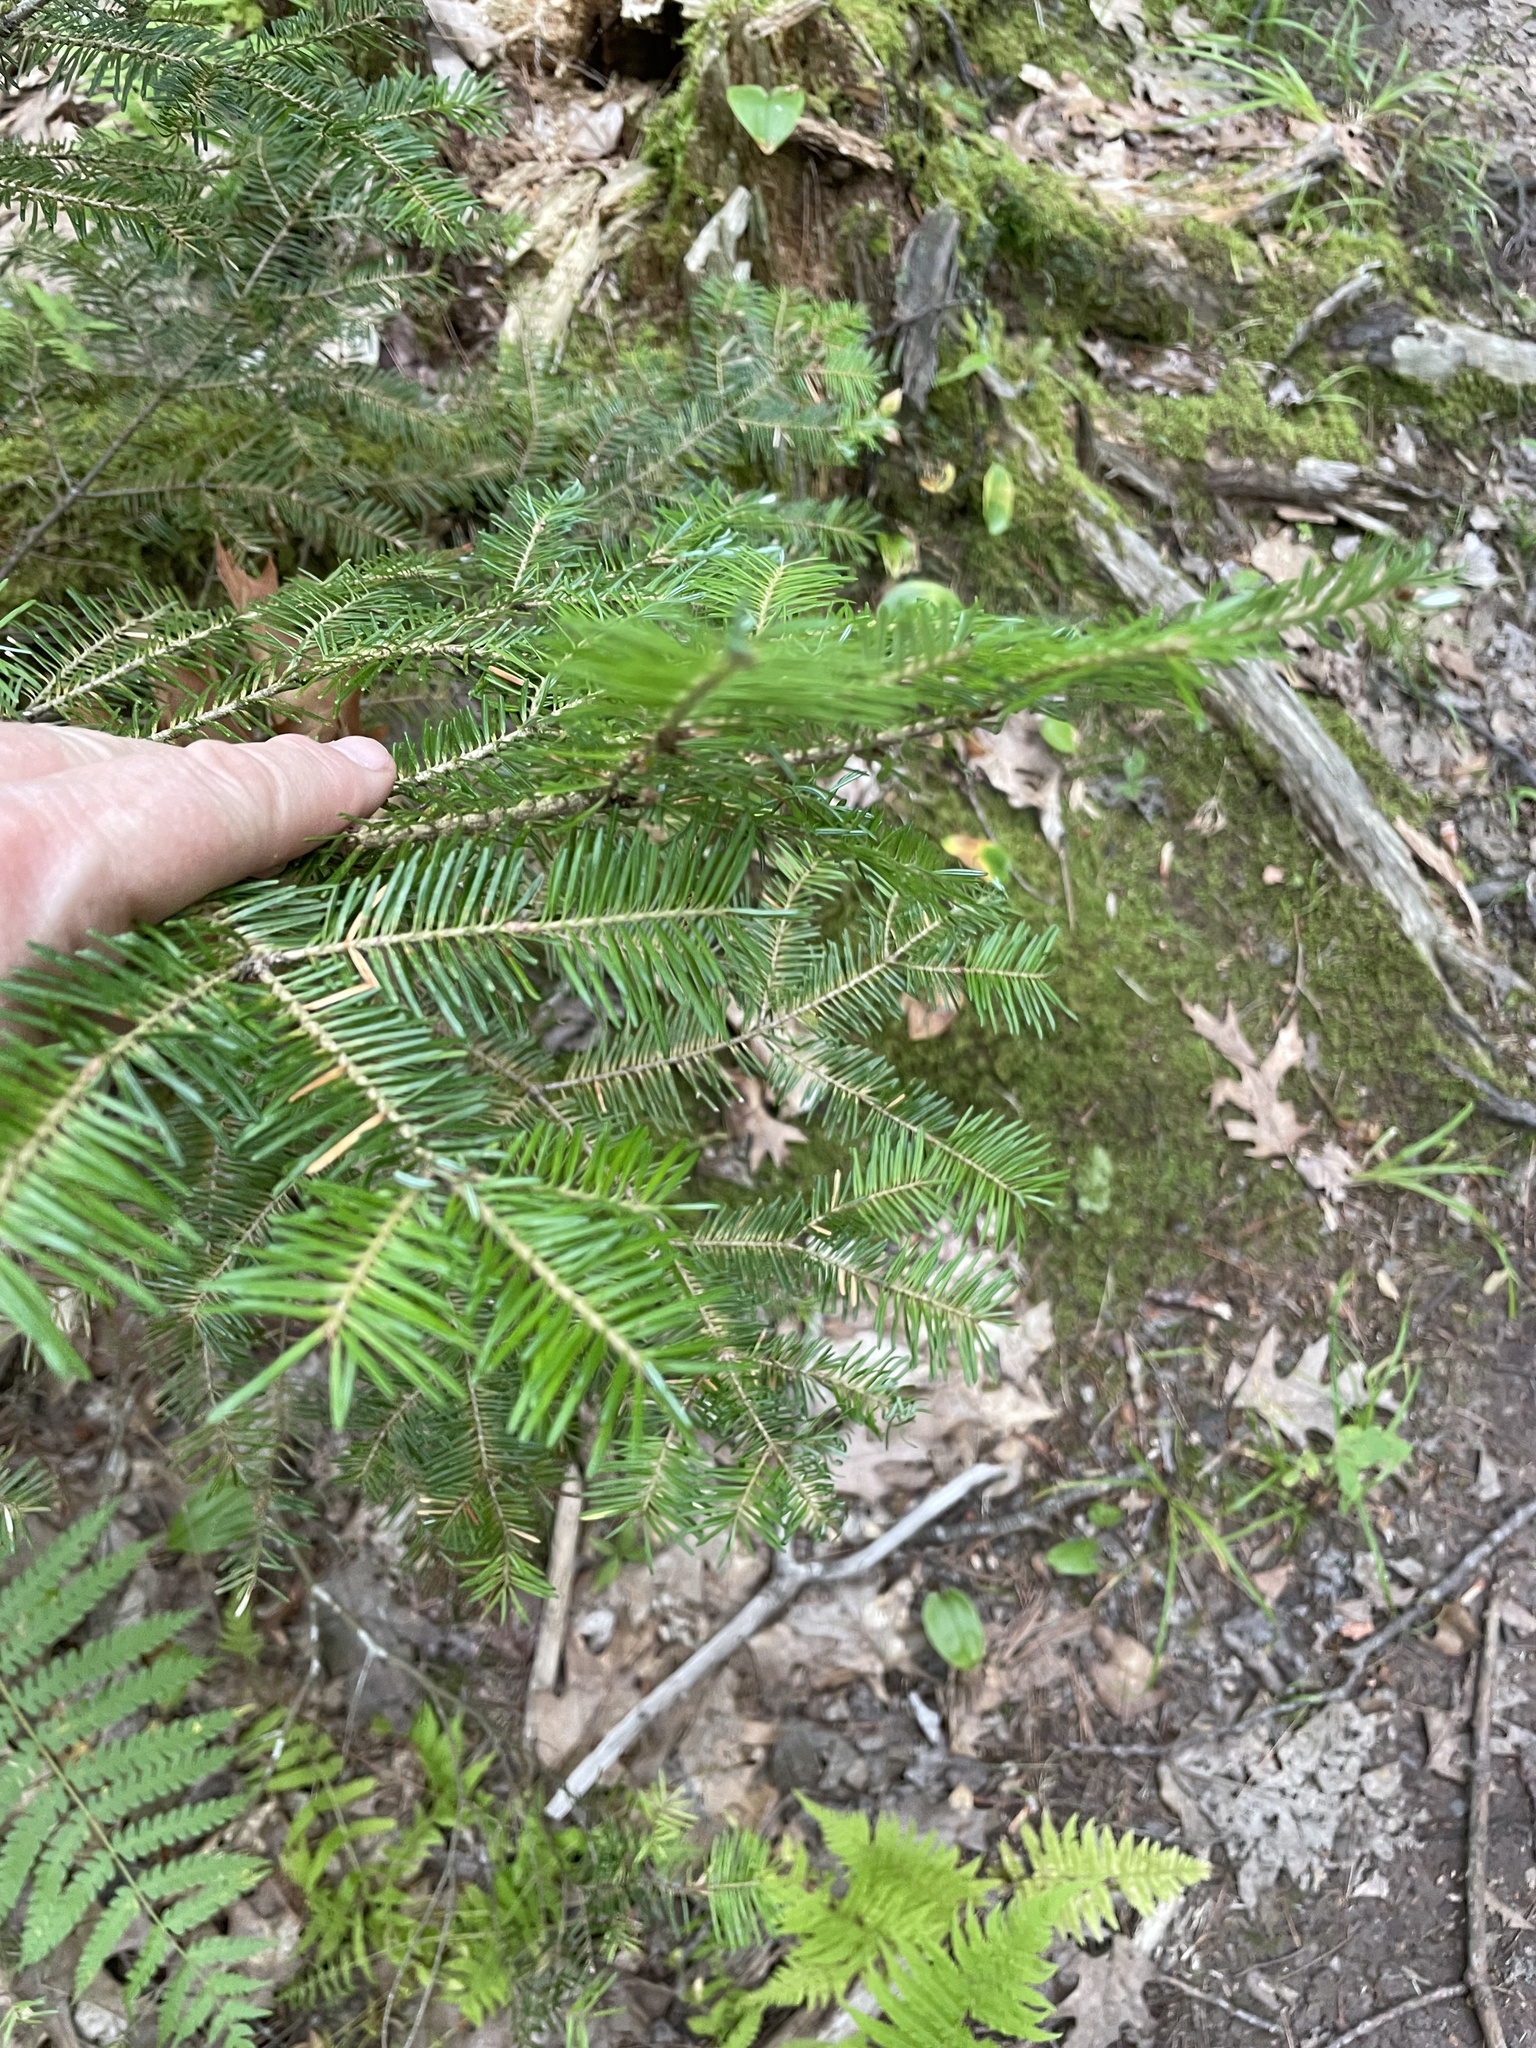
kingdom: Plantae
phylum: Tracheophyta
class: Pinopsida
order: Pinales
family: Pinaceae
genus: Abies
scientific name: Abies balsamea
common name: Balsam fir
